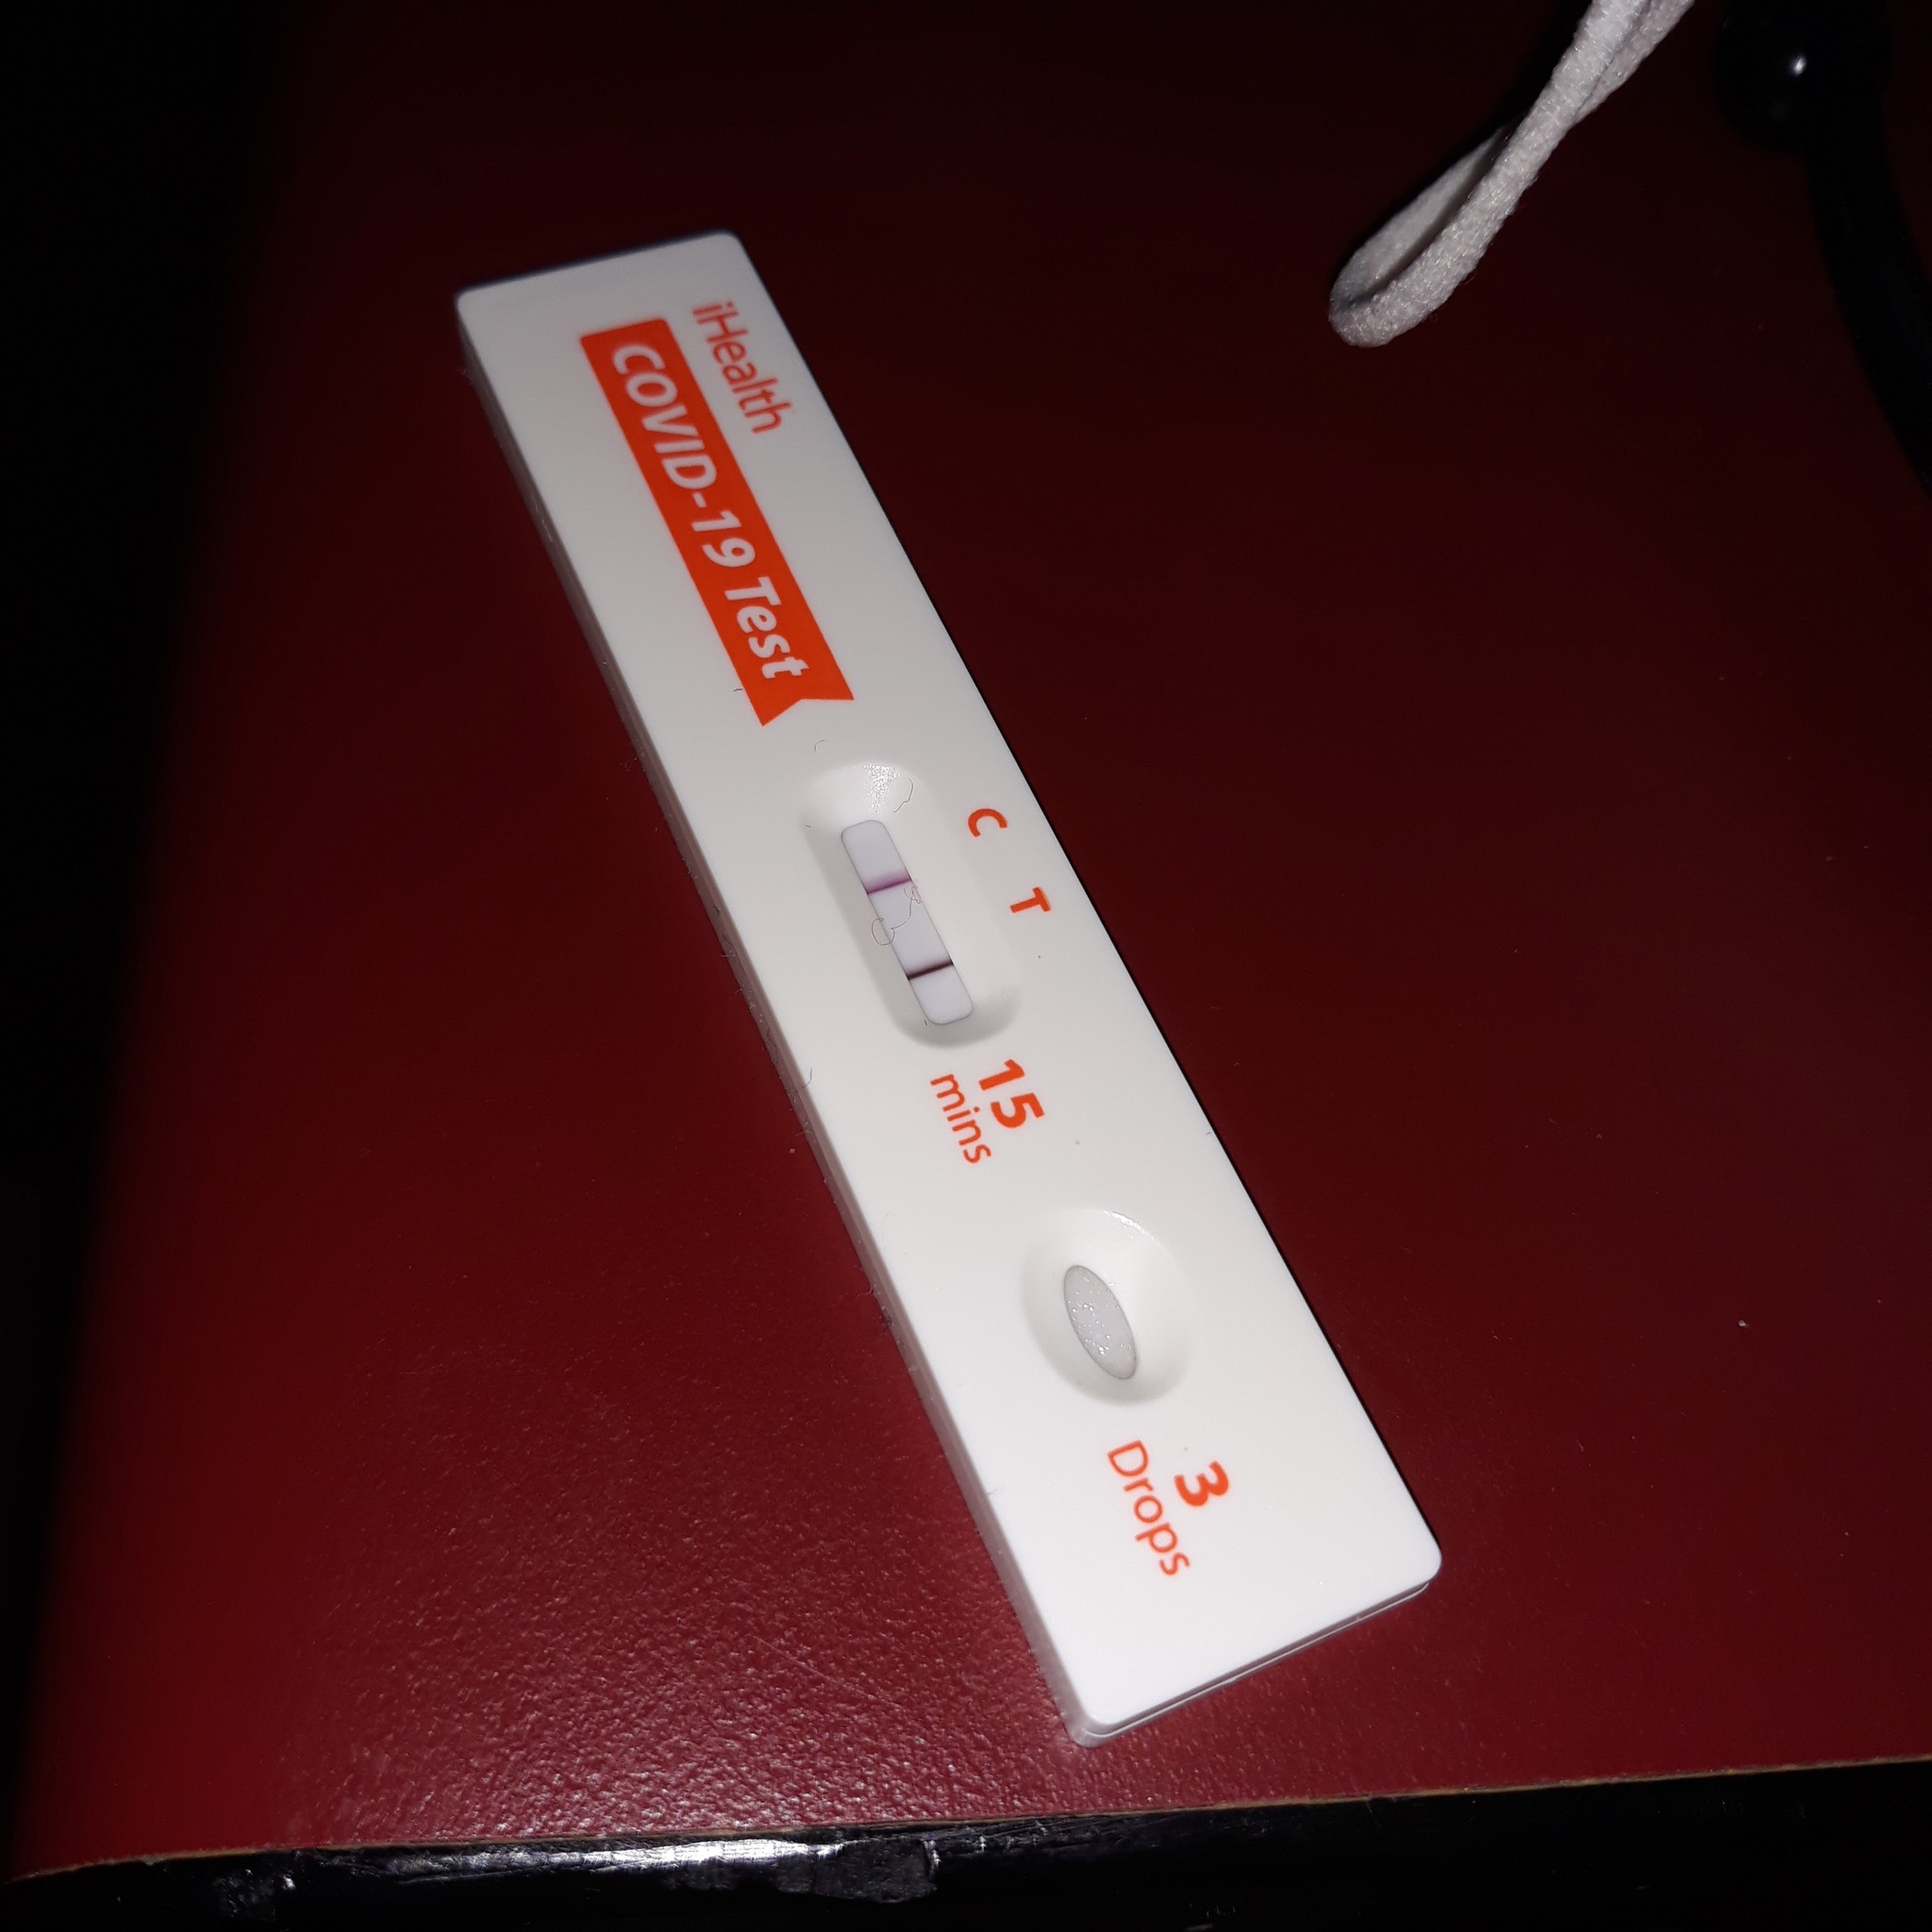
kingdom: Viruses
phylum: Pisuviricota
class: Pisoniviricetes
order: Nidovirales
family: Coronaviridae
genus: Betacoronavirus
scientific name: Betacoronavirus
